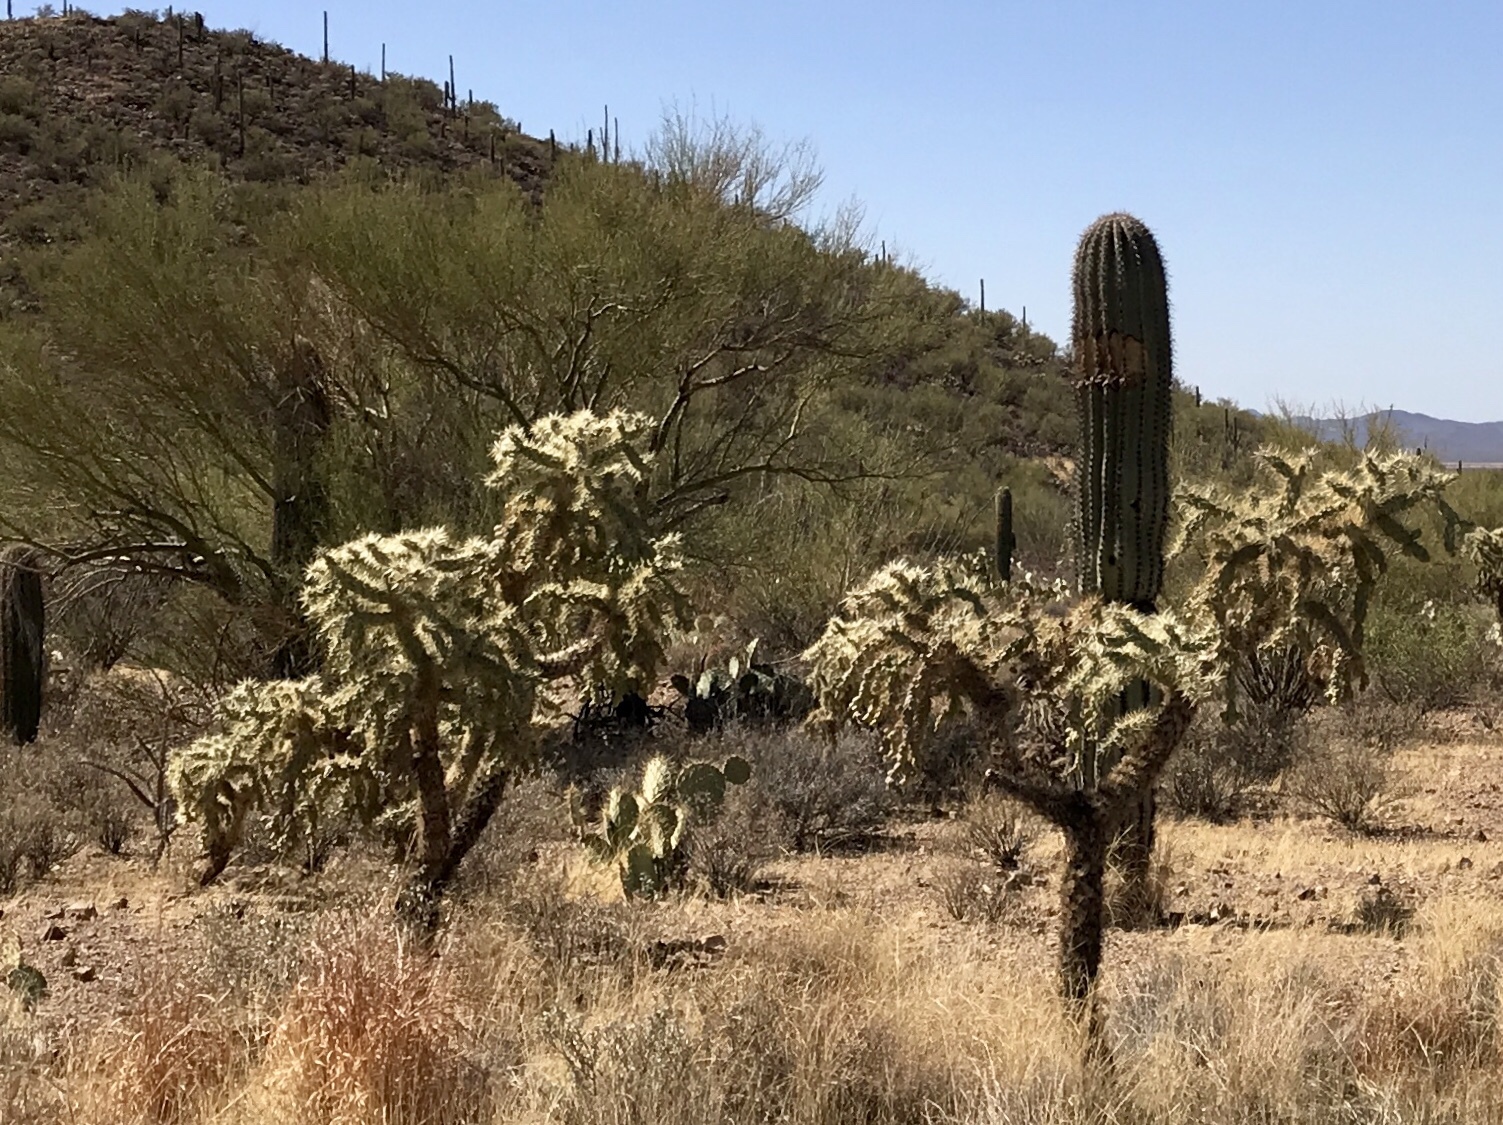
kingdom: Plantae
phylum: Tracheophyta
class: Magnoliopsida
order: Caryophyllales
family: Cactaceae
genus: Cylindropuntia
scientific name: Cylindropuntia fulgida
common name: Jumping cholla
